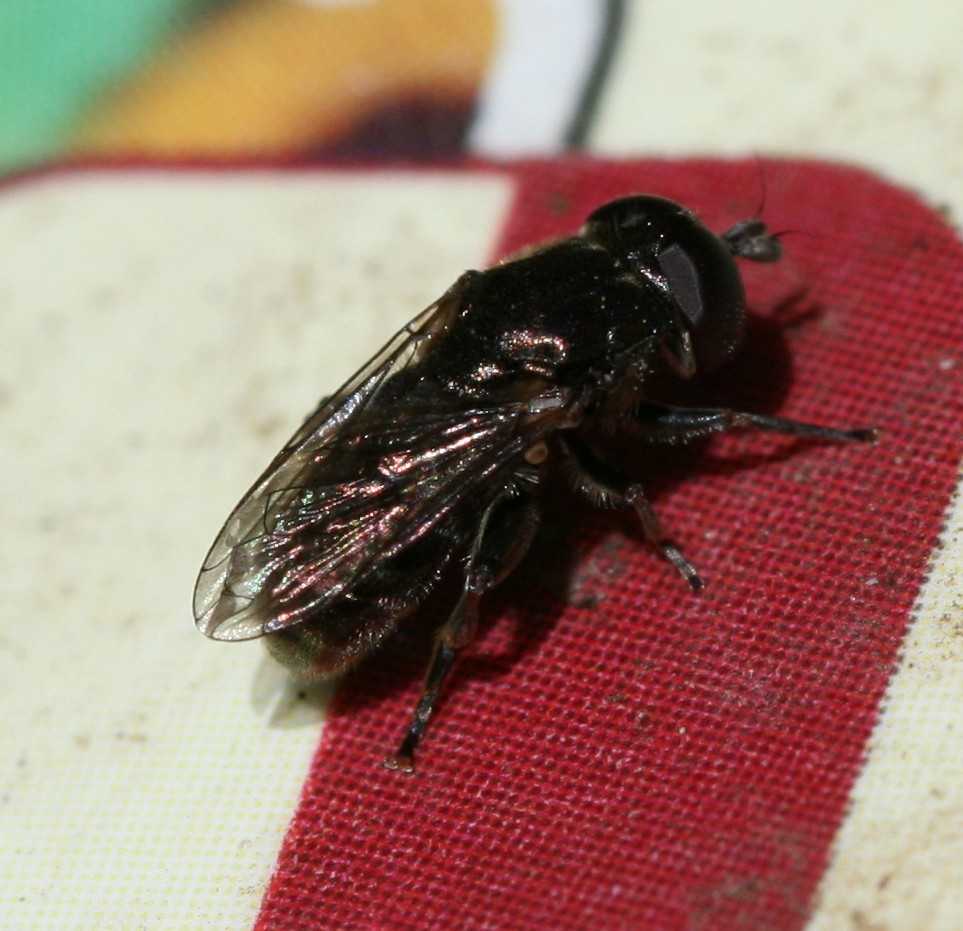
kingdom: Animalia
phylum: Arthropoda
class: Insecta
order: Diptera
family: Syrphidae
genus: Eumerus
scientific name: Eumerus
